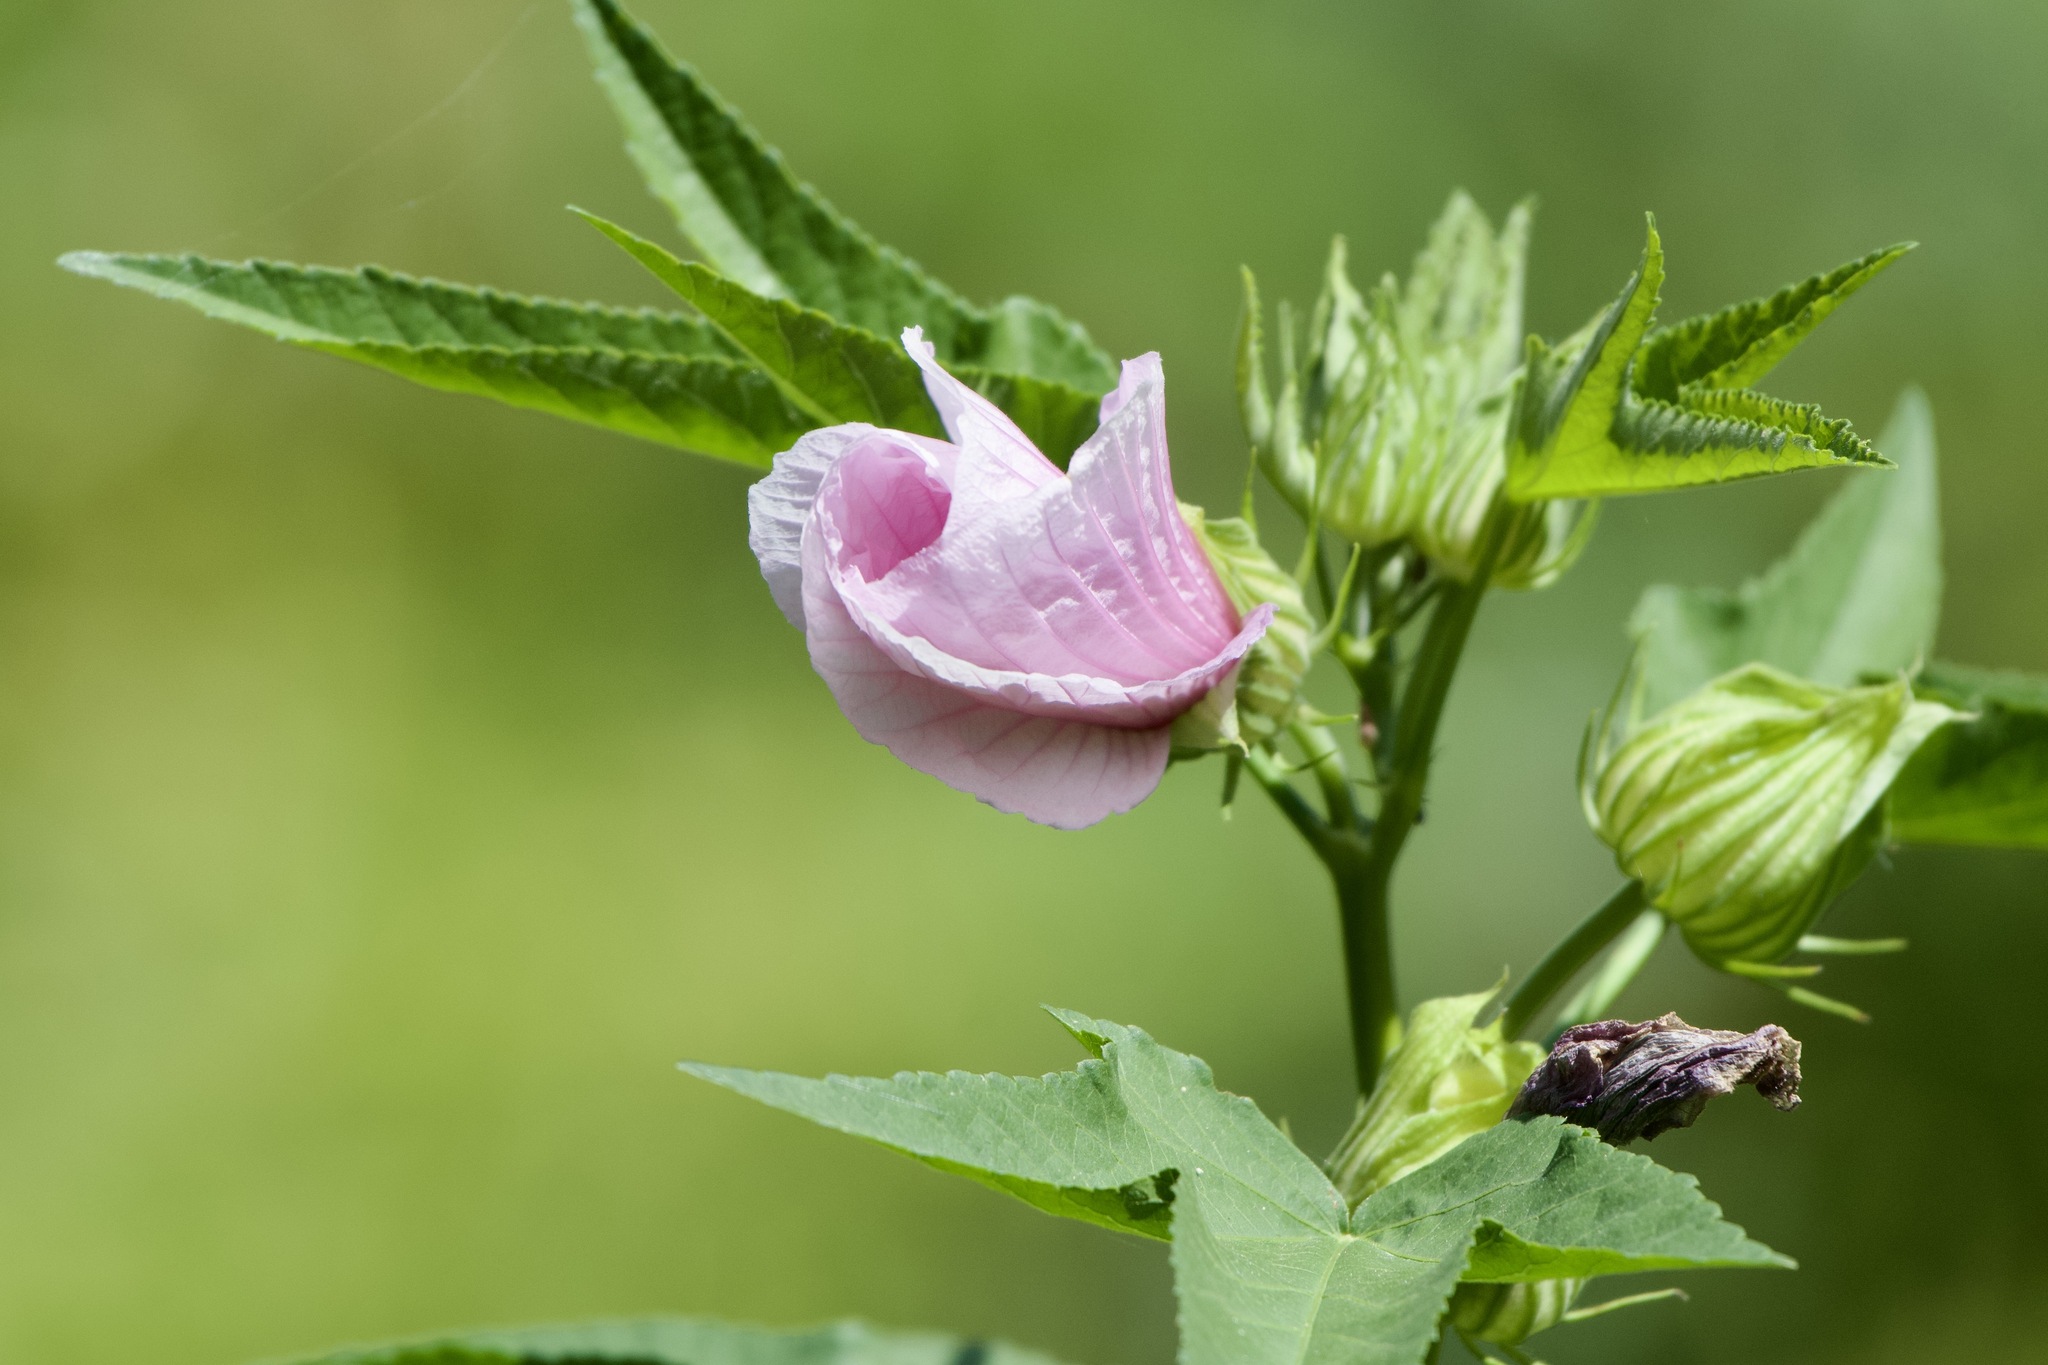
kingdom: Plantae
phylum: Tracheophyta
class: Magnoliopsida
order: Malvales
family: Malvaceae
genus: Hibiscus
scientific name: Hibiscus striatus
